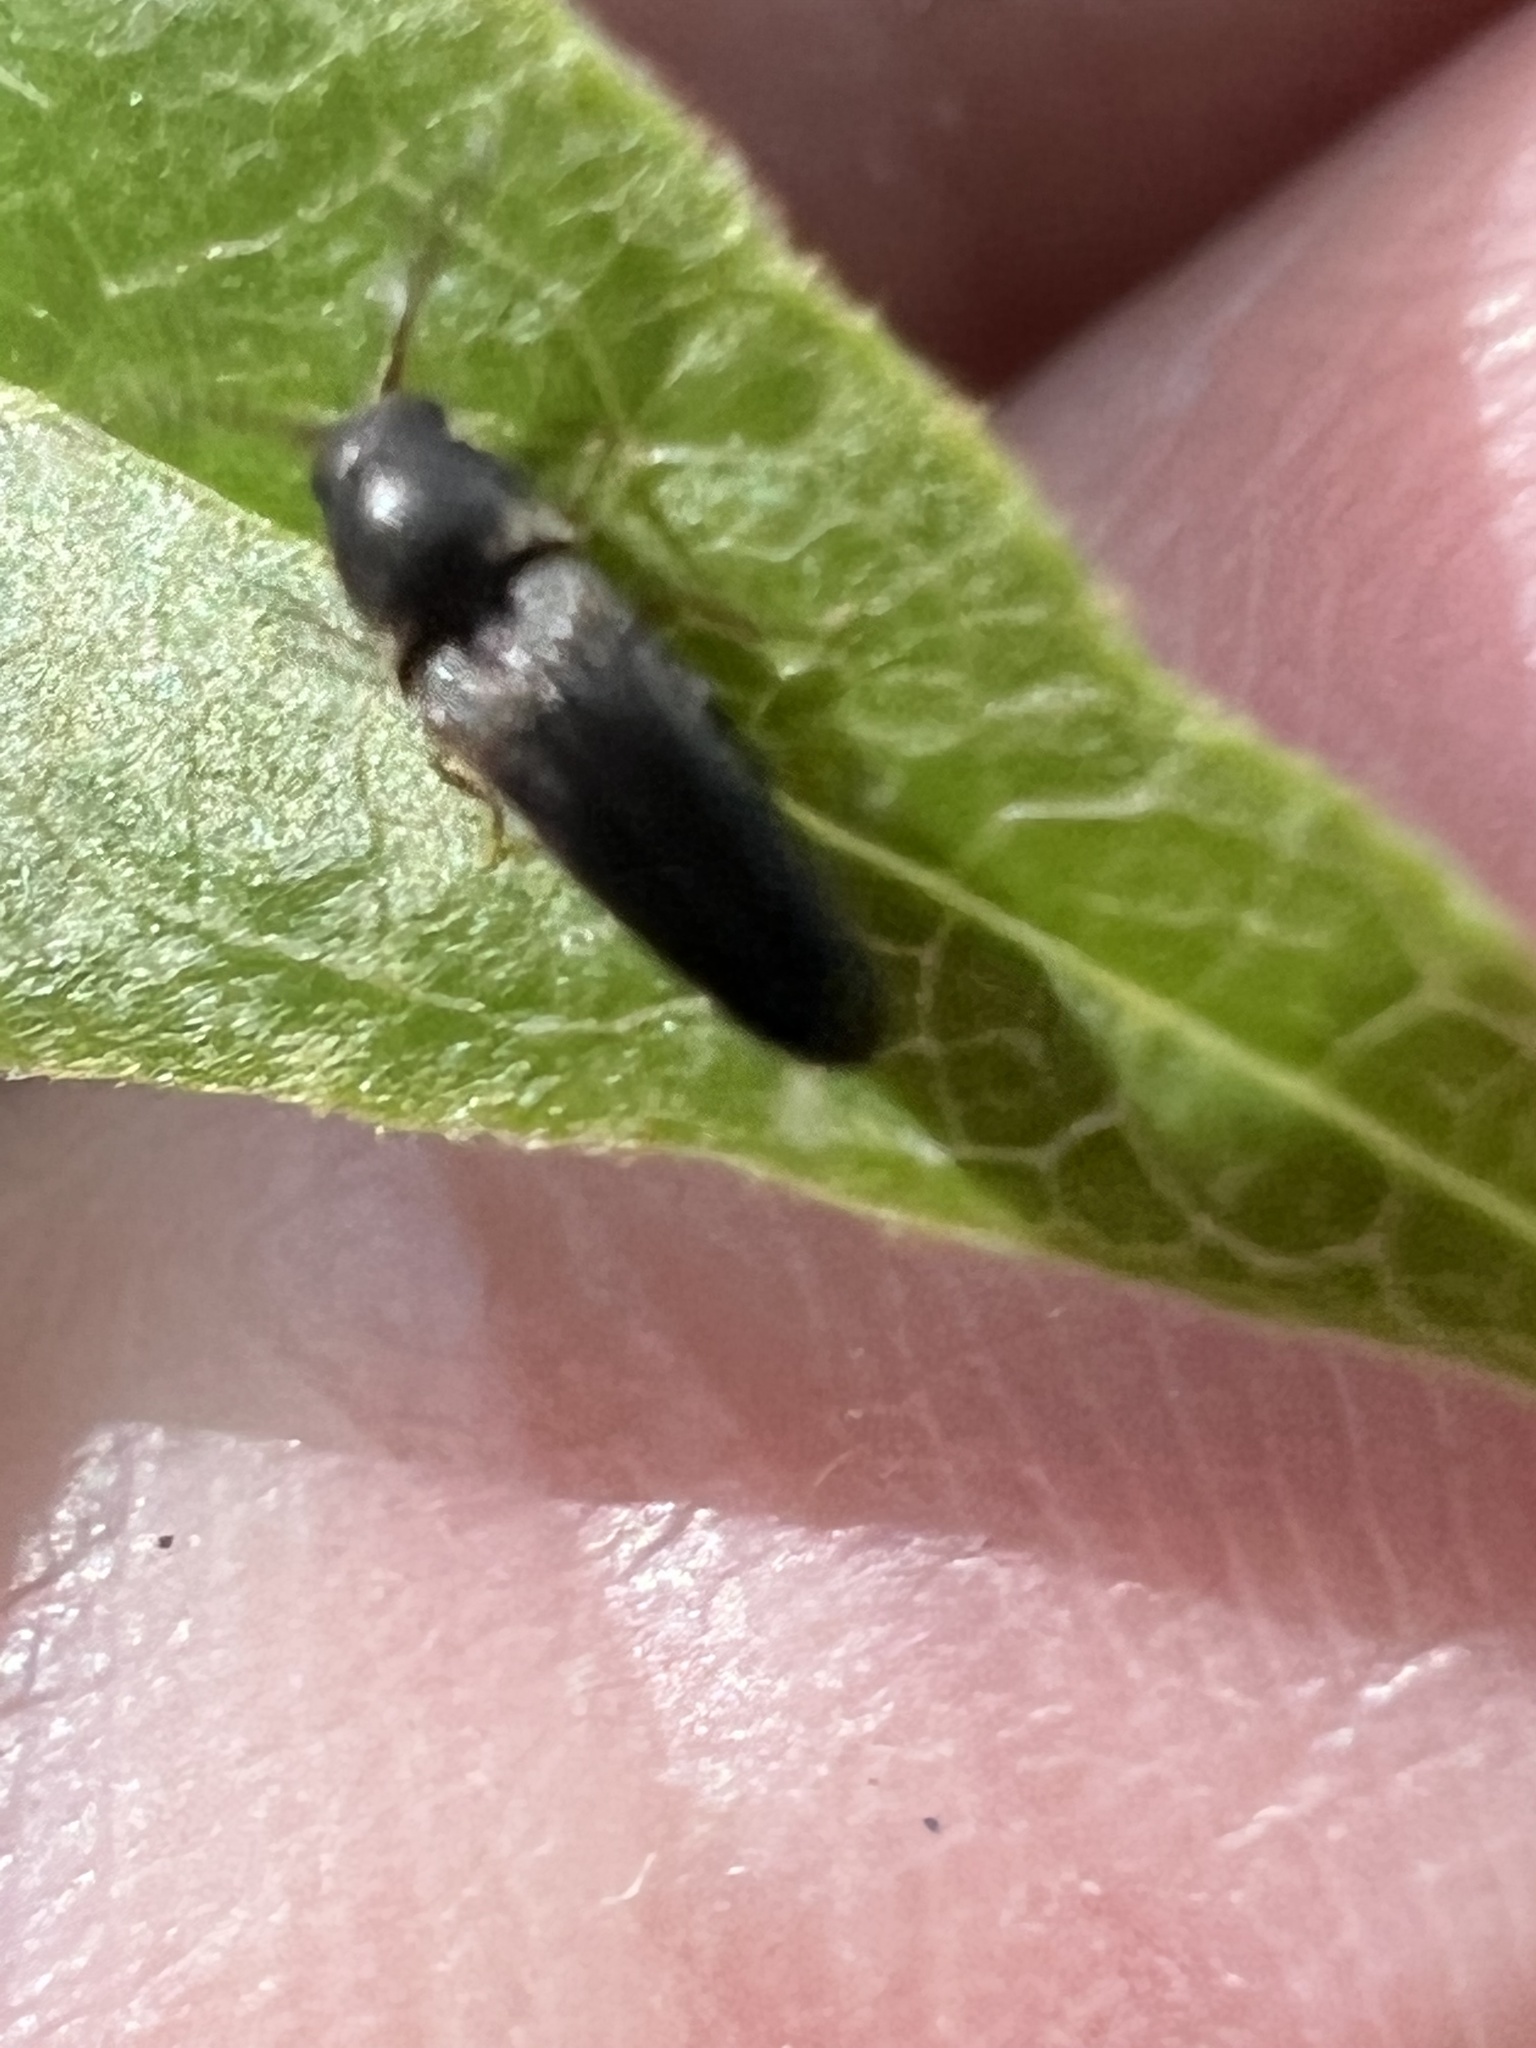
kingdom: Animalia
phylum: Arthropoda
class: Insecta
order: Coleoptera
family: Eucnemidae
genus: Deltometopus
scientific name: Deltometopus amoenicornis
